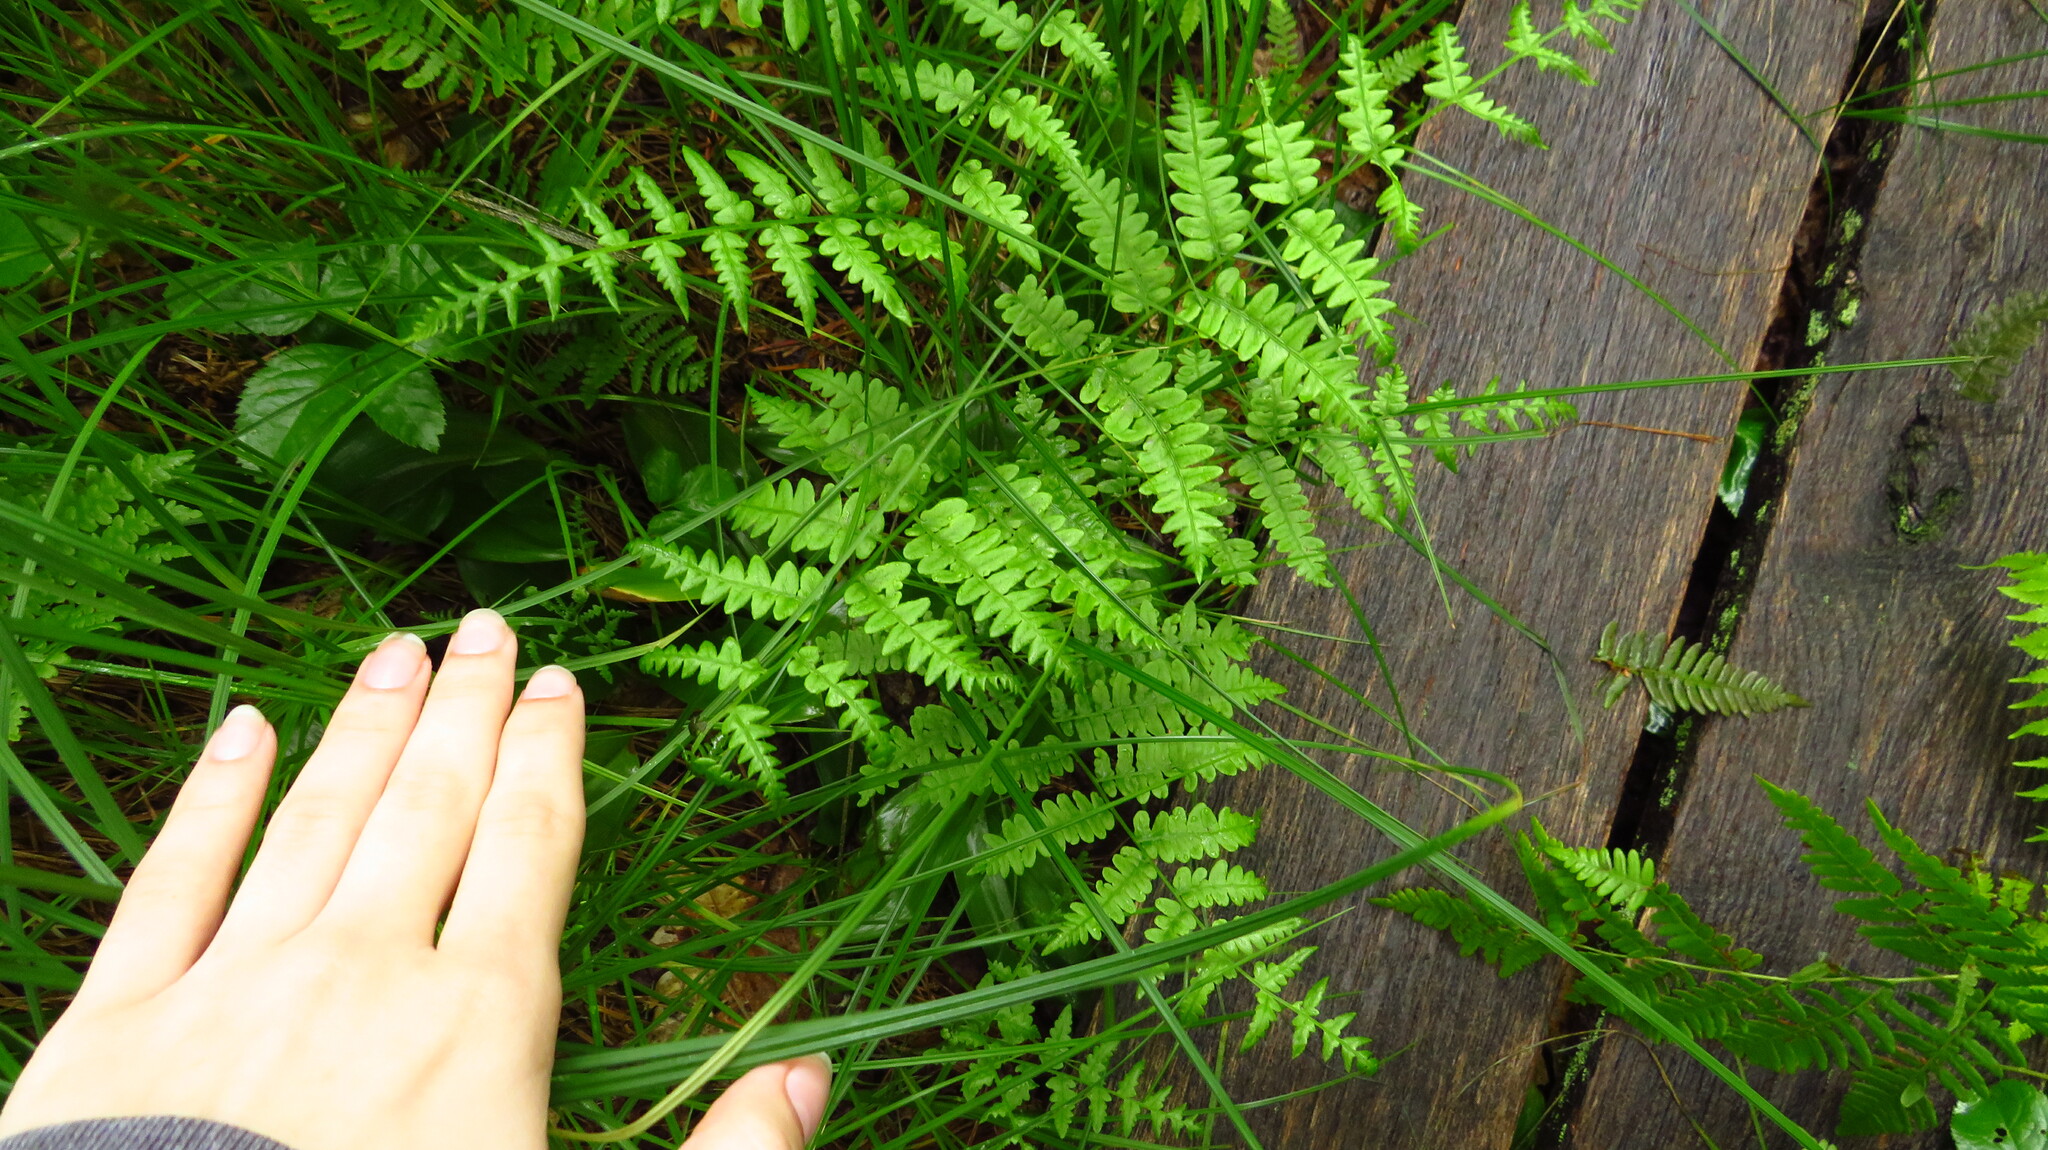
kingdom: Plantae
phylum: Tracheophyta
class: Polypodiopsida
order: Polypodiales
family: Thelypteridaceae
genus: Thelypteris
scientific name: Thelypteris palustris
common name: Marsh fern
